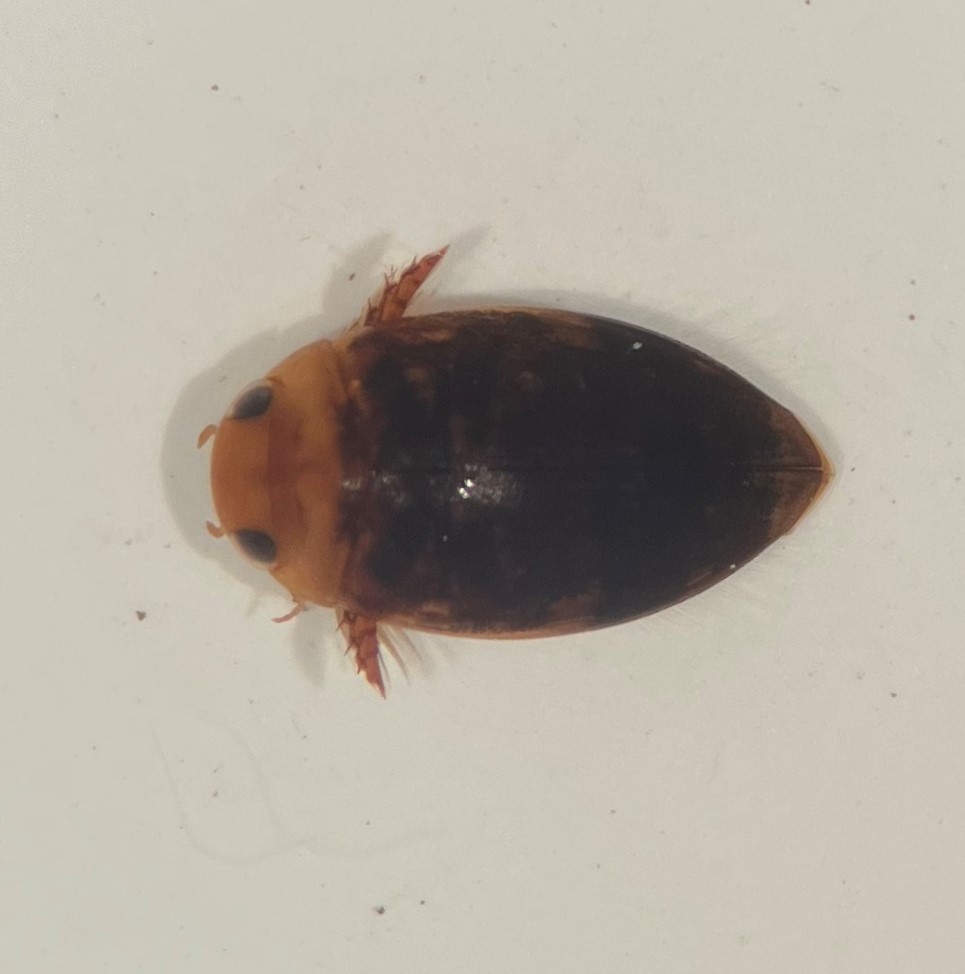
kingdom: Animalia
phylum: Arthropoda
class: Insecta
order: Coleoptera
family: Dytiscidae
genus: Laccophilus
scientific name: Laccophilus proximus
